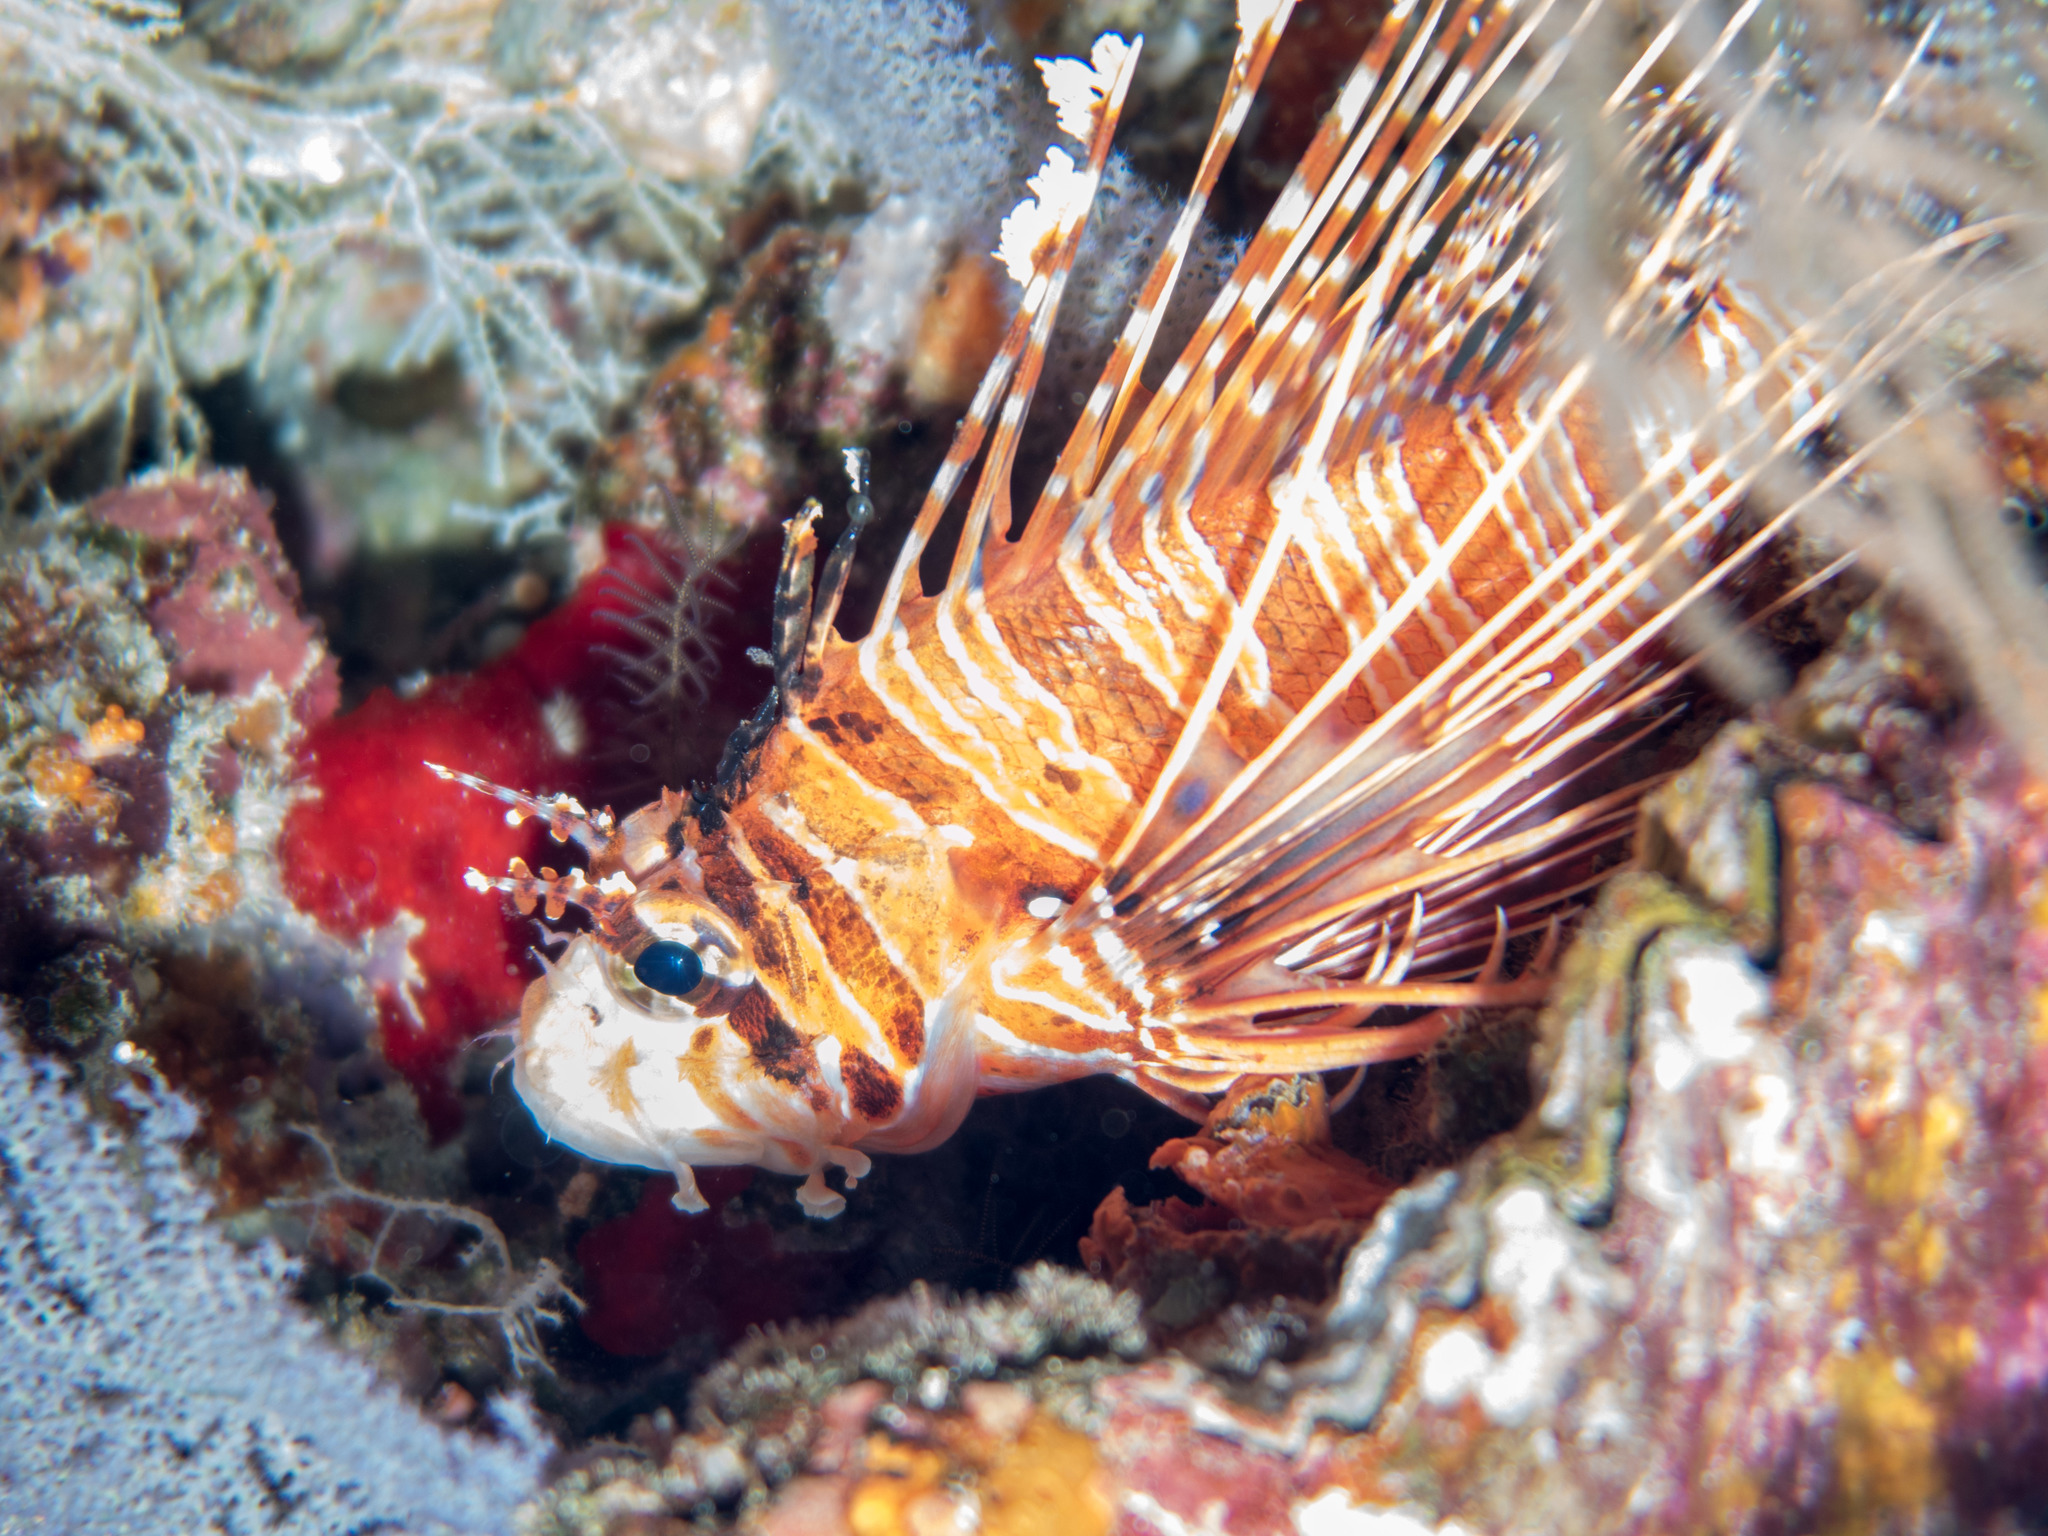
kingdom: Animalia
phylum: Chordata
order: Scorpaeniformes
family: Scorpaenidae
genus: Pterois
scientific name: Pterois antennata
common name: Spotfin lionfish
